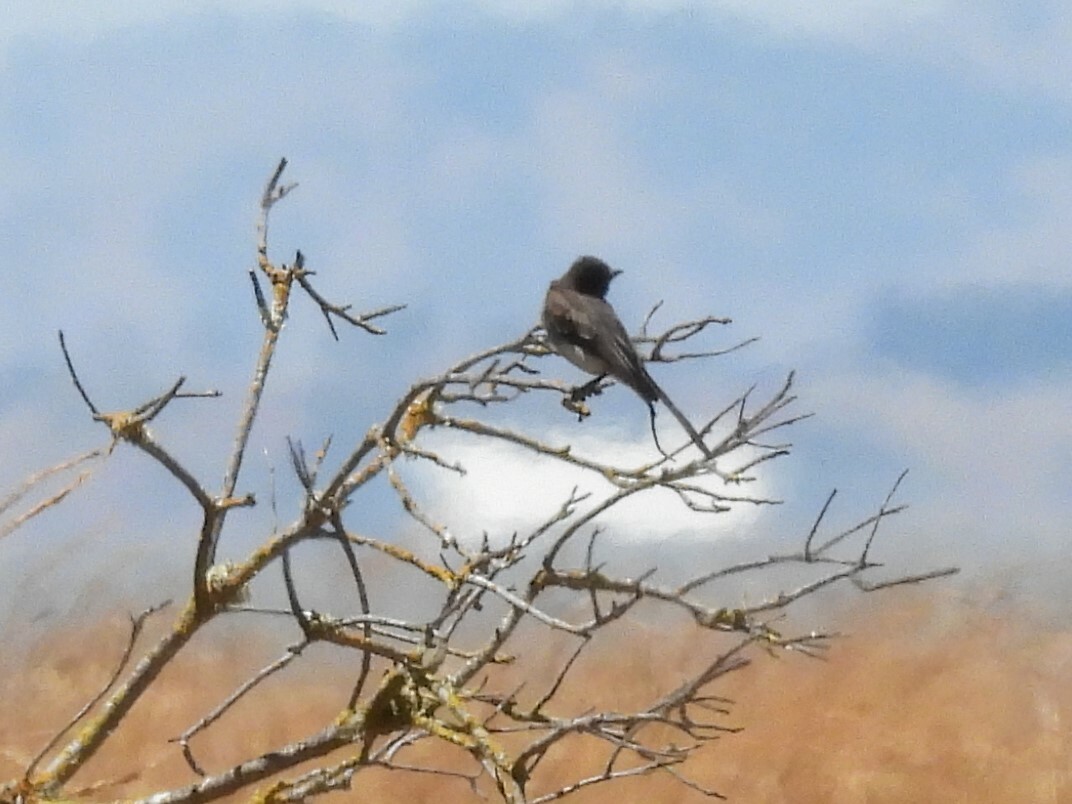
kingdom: Animalia
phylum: Chordata
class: Aves
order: Passeriformes
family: Tyrannidae
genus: Sayornis
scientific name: Sayornis nigricans
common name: Black phoebe
